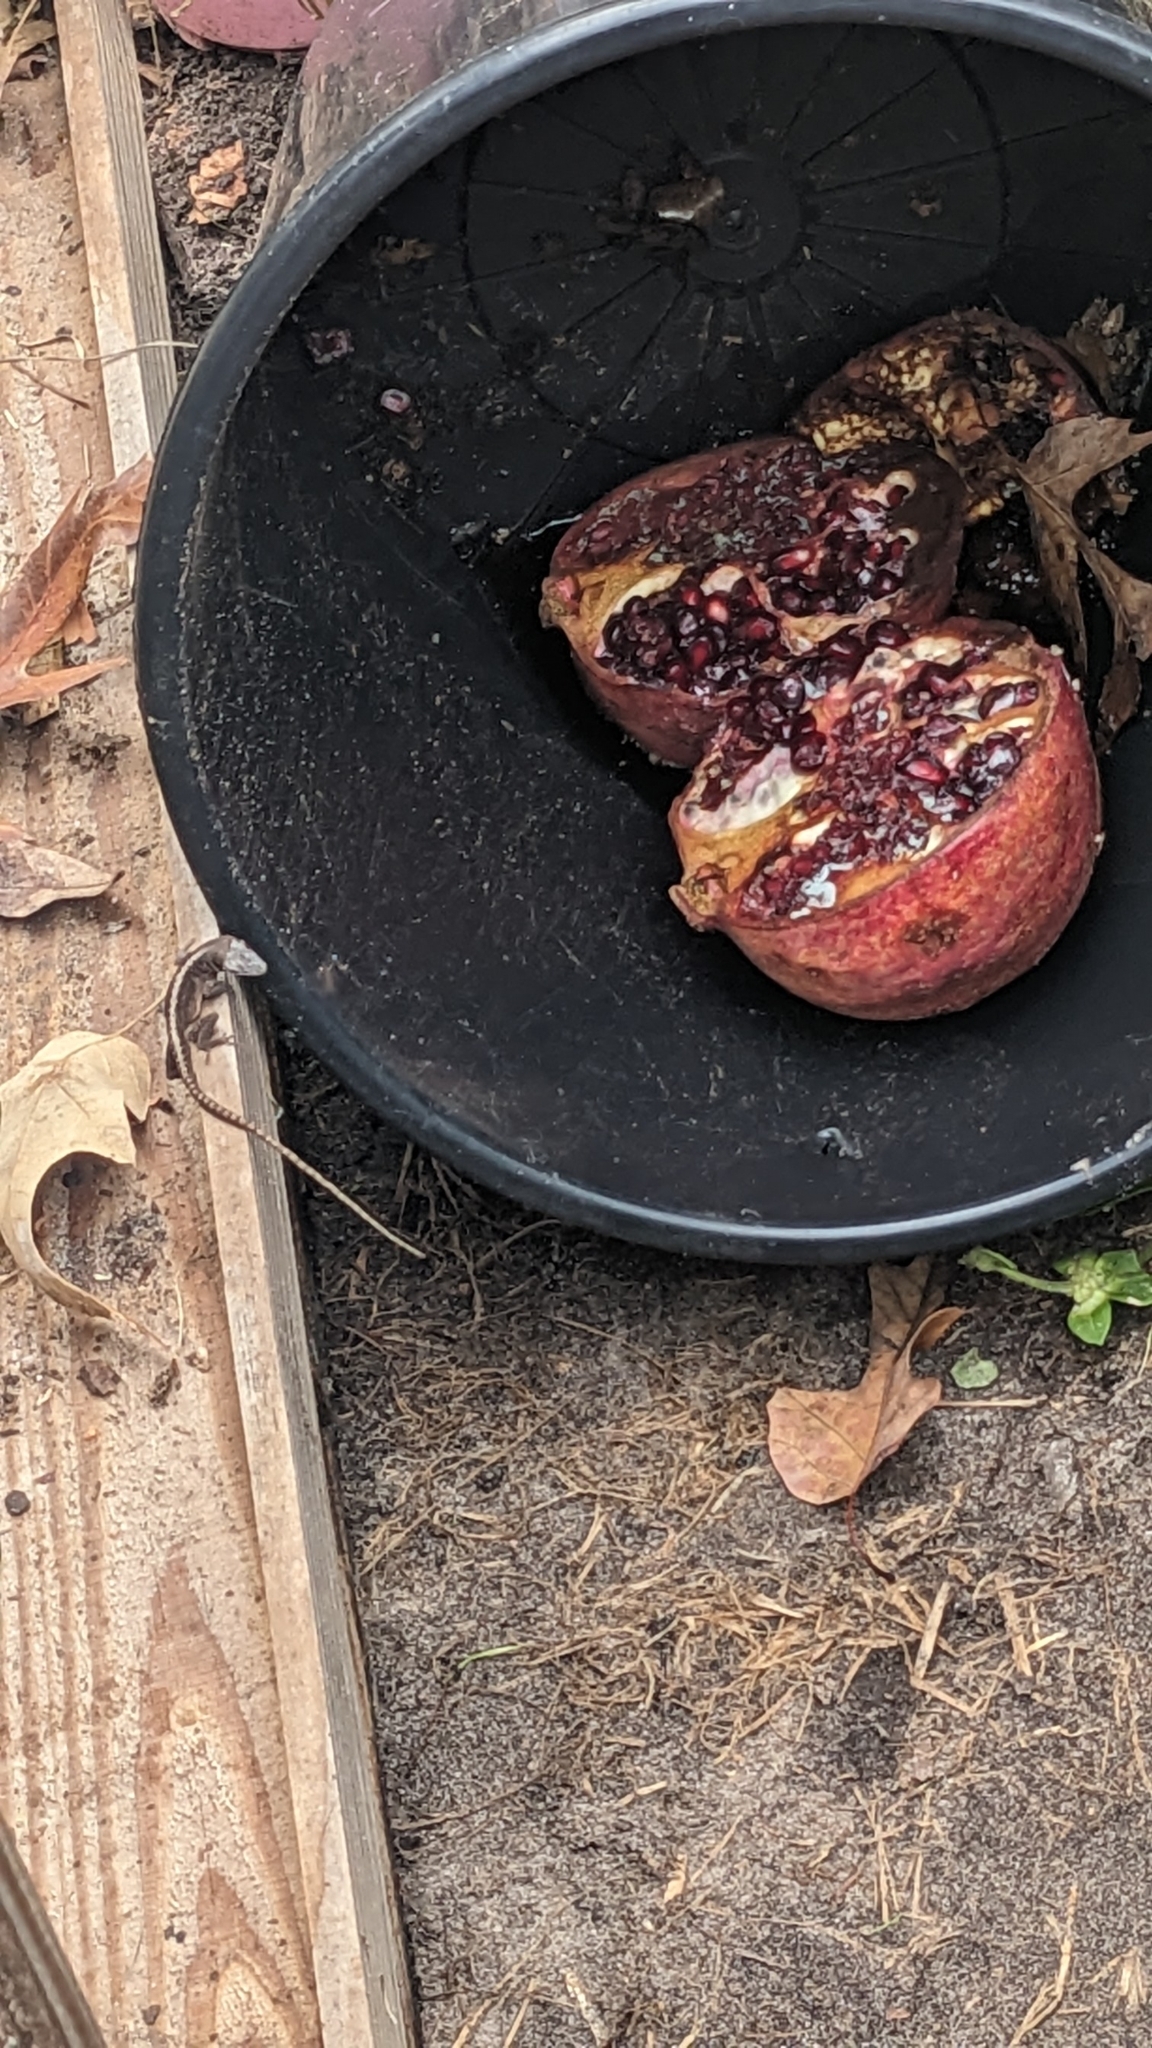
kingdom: Animalia
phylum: Chordata
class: Squamata
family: Dactyloidae
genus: Anolis
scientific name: Anolis carolinensis
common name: Green anole
